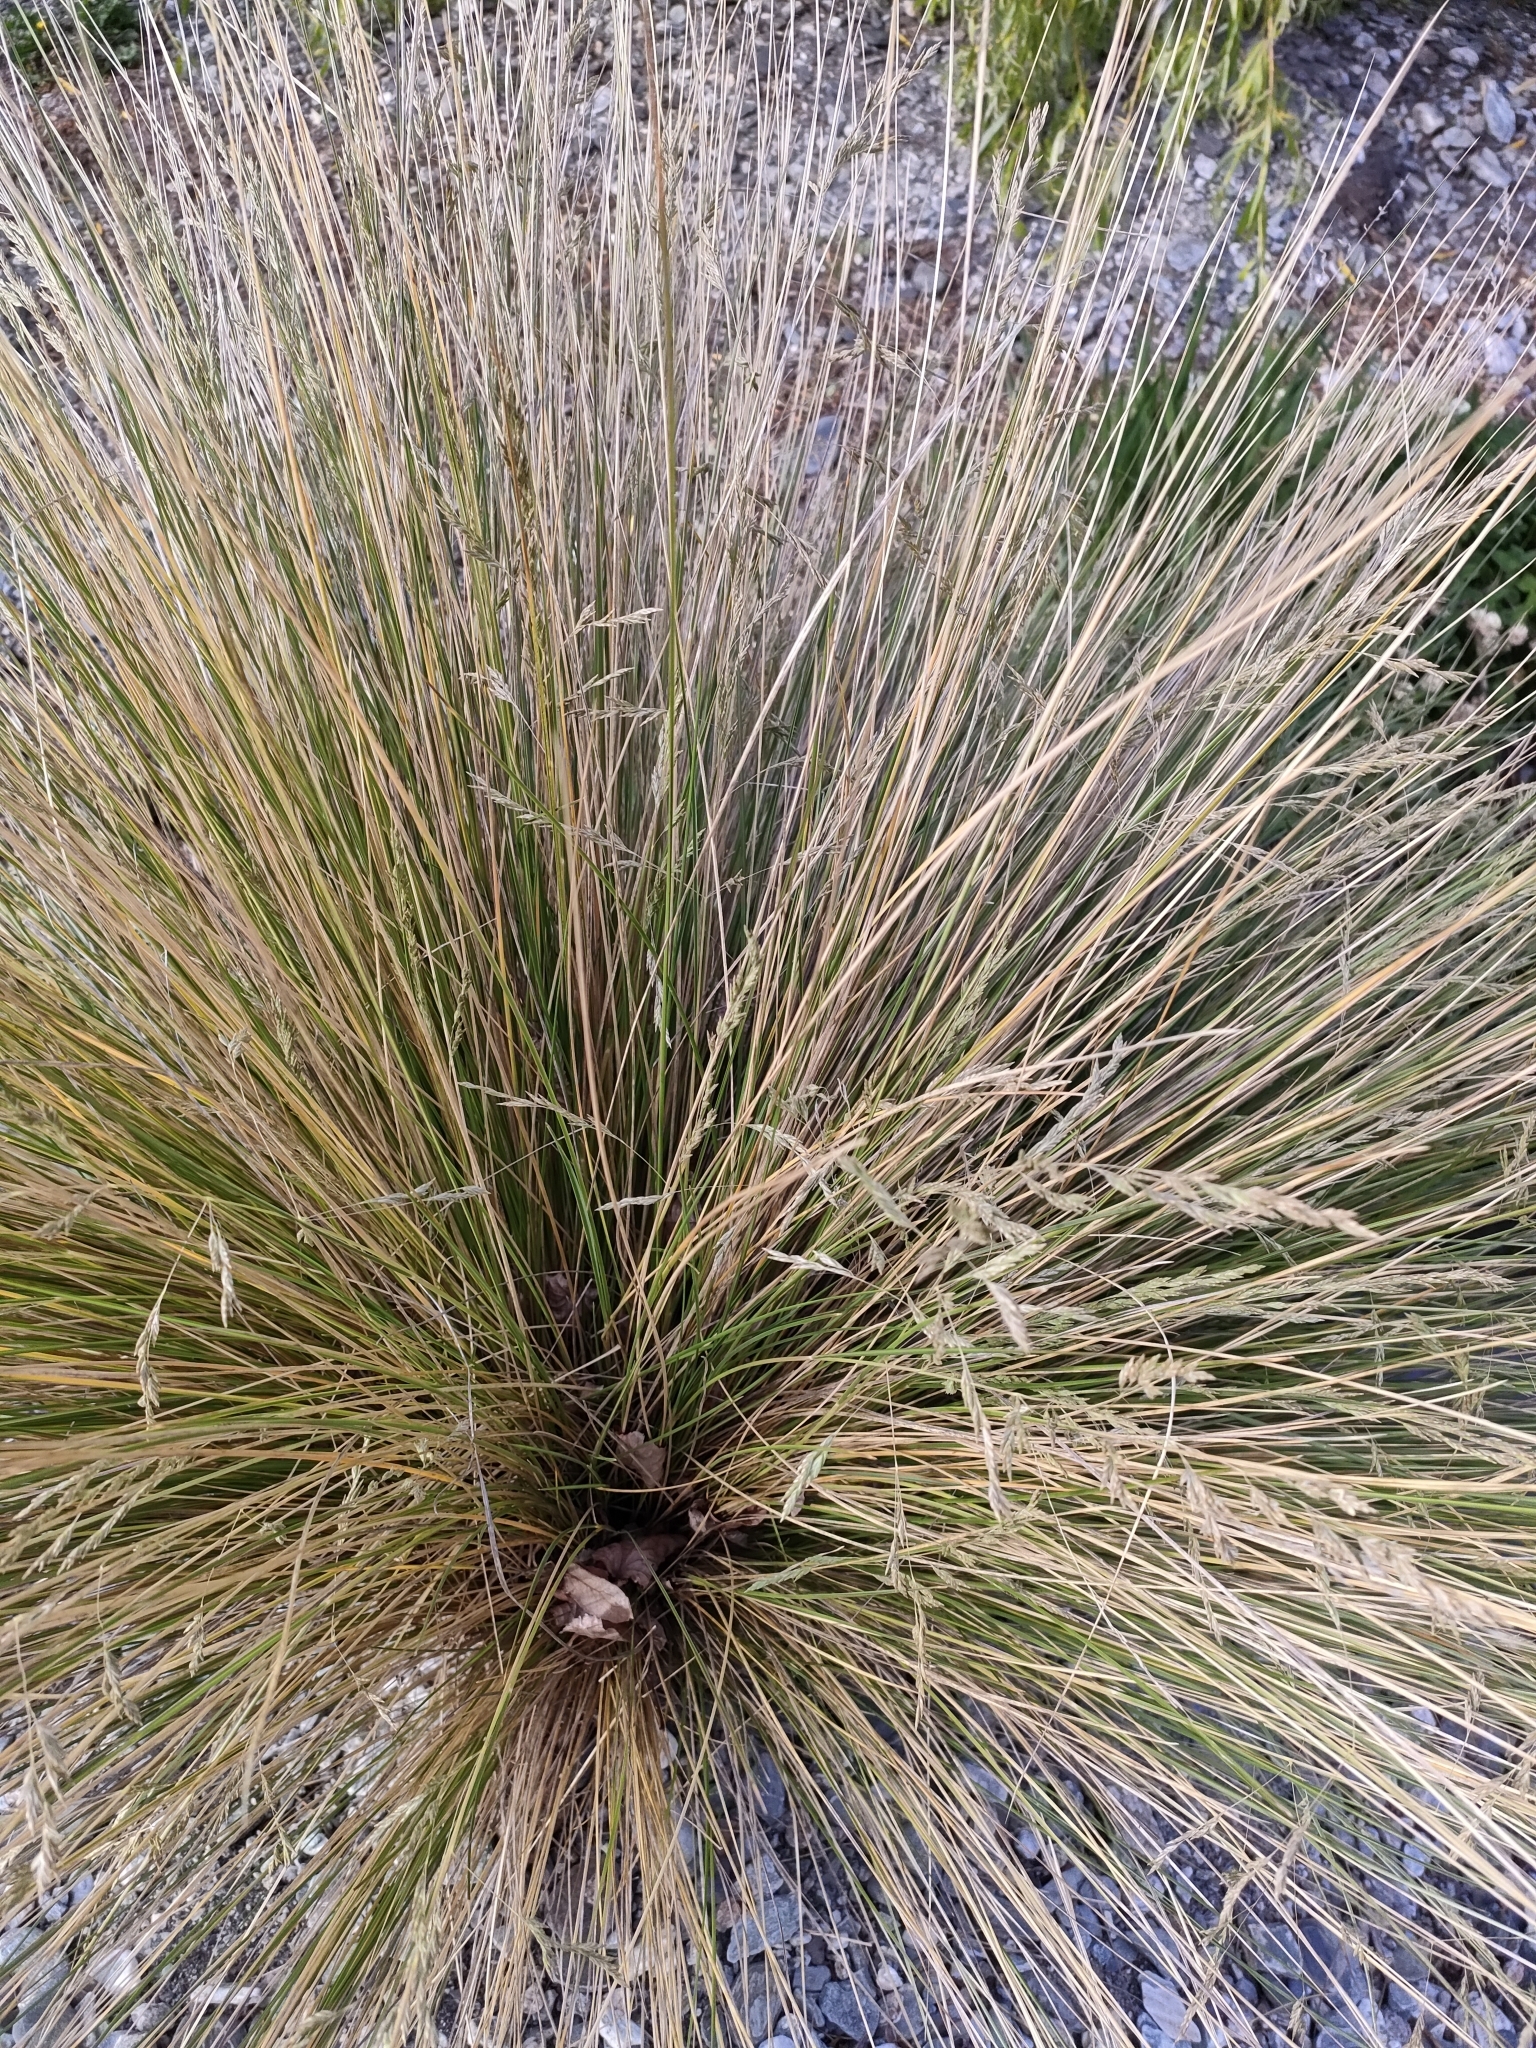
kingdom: Plantae
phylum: Tracheophyta
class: Liliopsida
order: Poales
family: Poaceae
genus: Poa
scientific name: Poa cita
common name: Silver tussock
